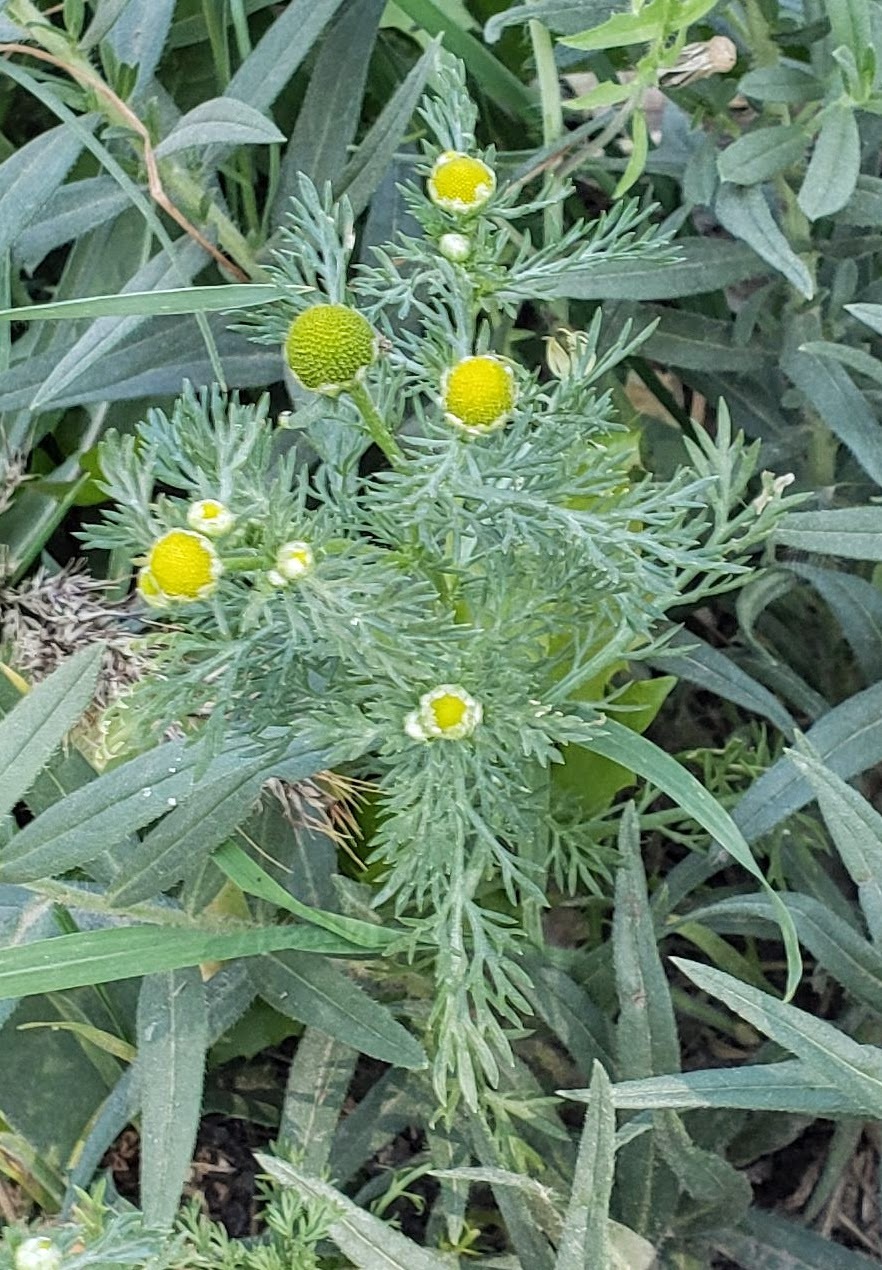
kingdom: Plantae
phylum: Tracheophyta
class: Magnoliopsida
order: Asterales
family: Asteraceae
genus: Matricaria
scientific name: Matricaria discoidea
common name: Disc mayweed
